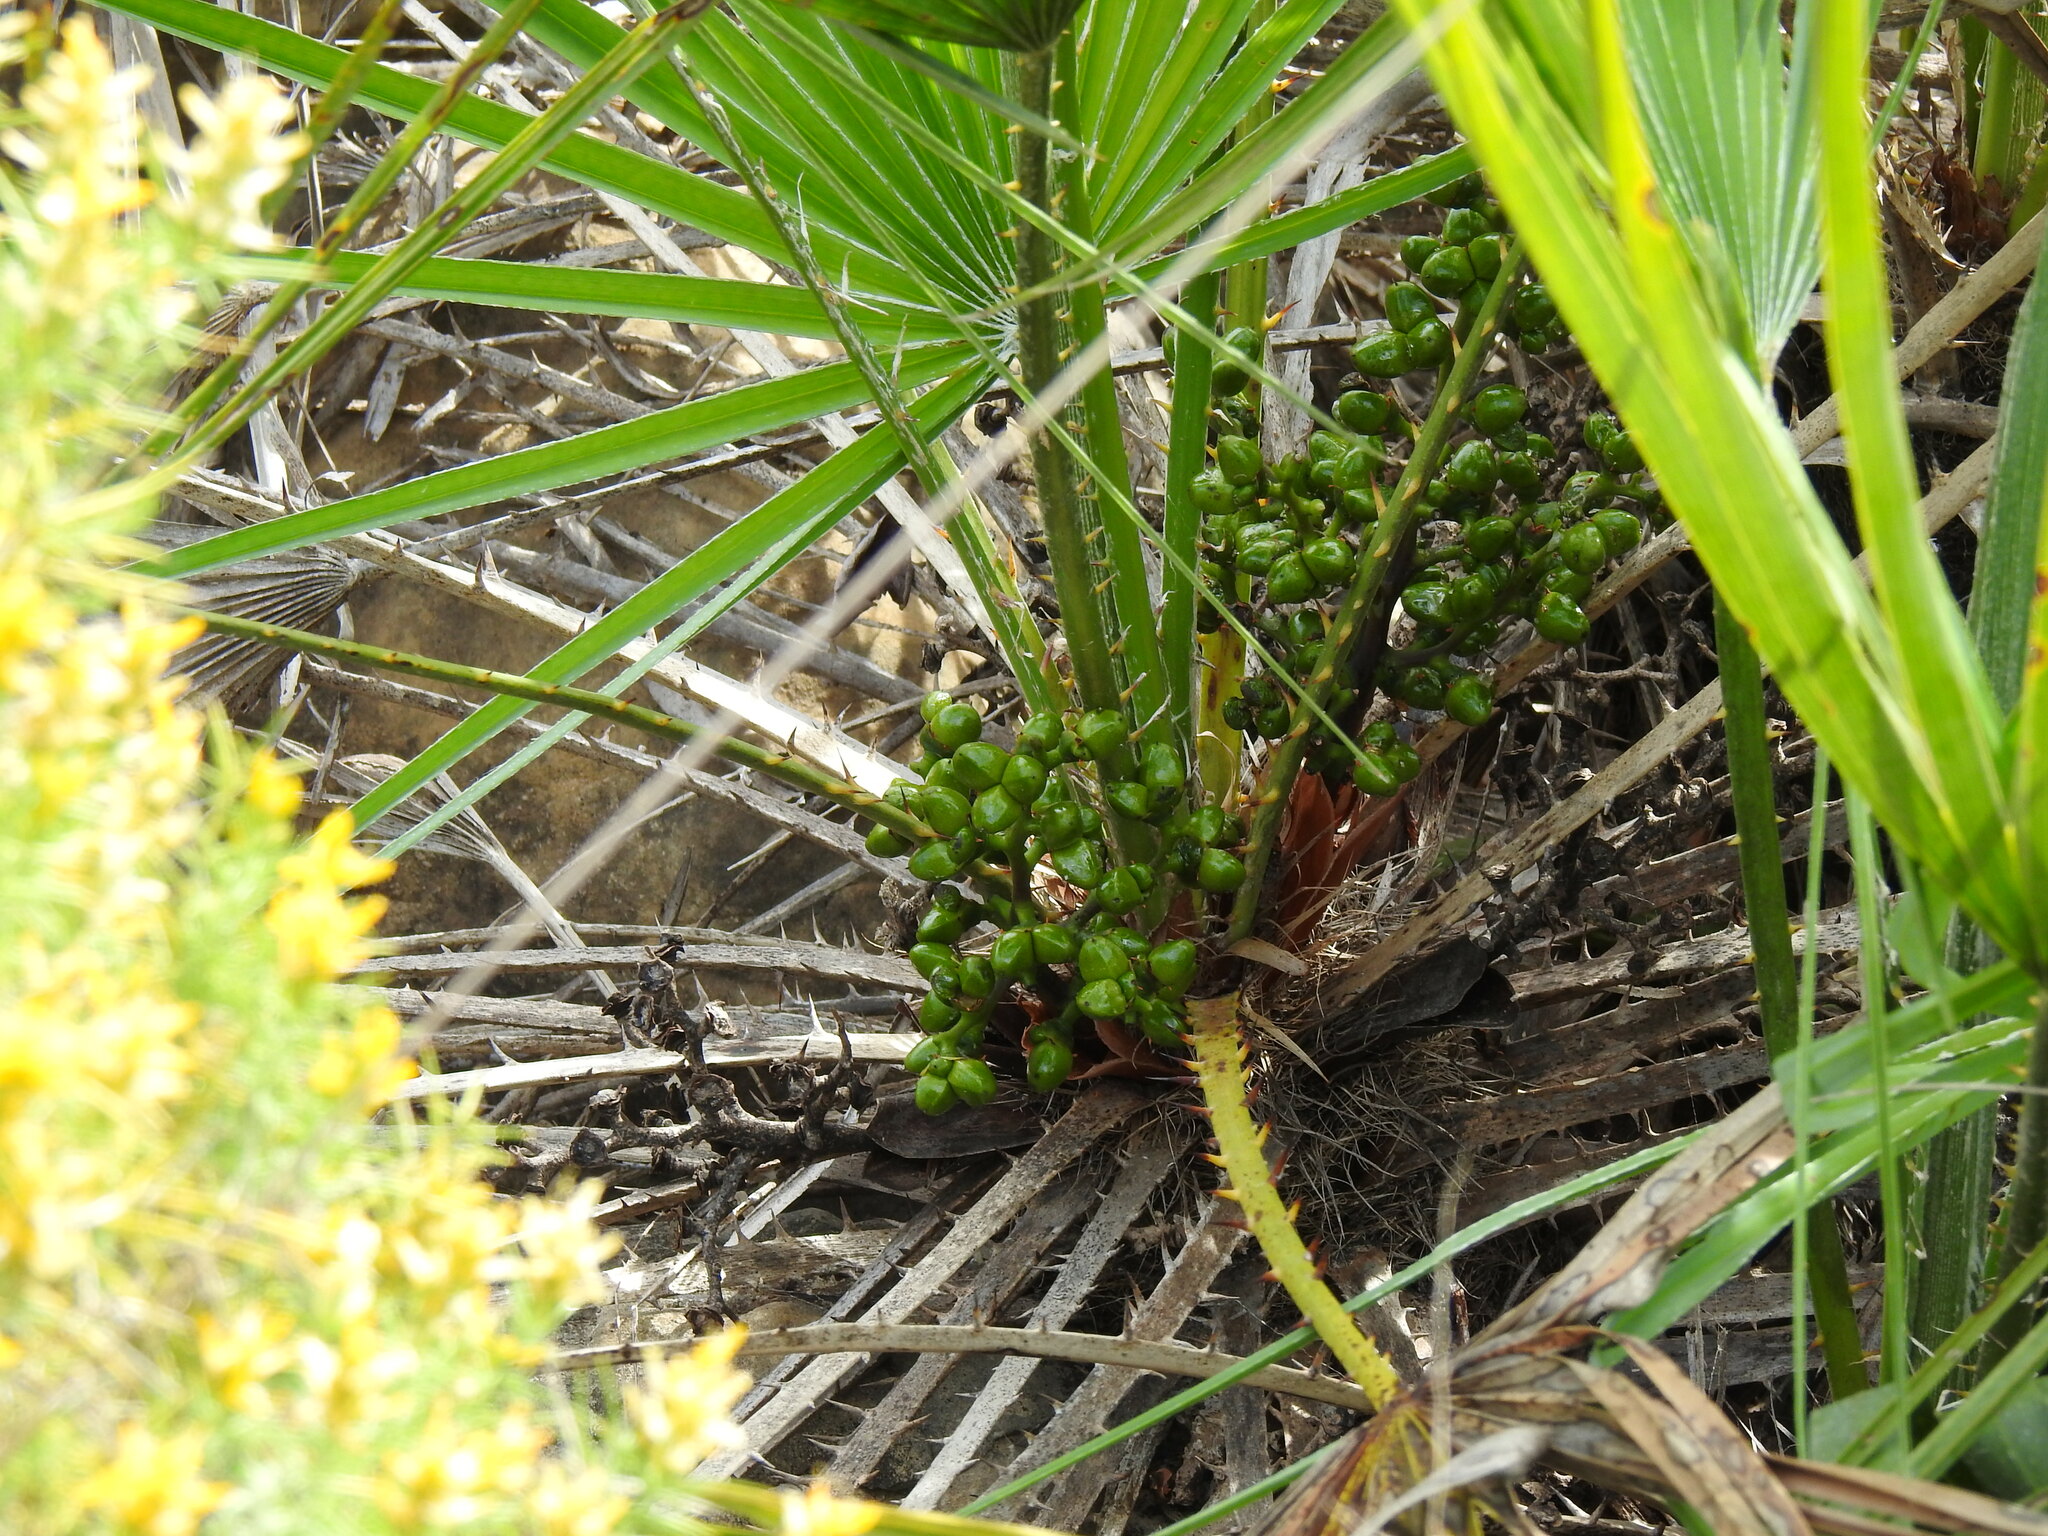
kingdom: Plantae
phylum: Tracheophyta
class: Liliopsida
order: Arecales
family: Arecaceae
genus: Chamaerops
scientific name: Chamaerops humilis
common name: Dwarf fan palm
